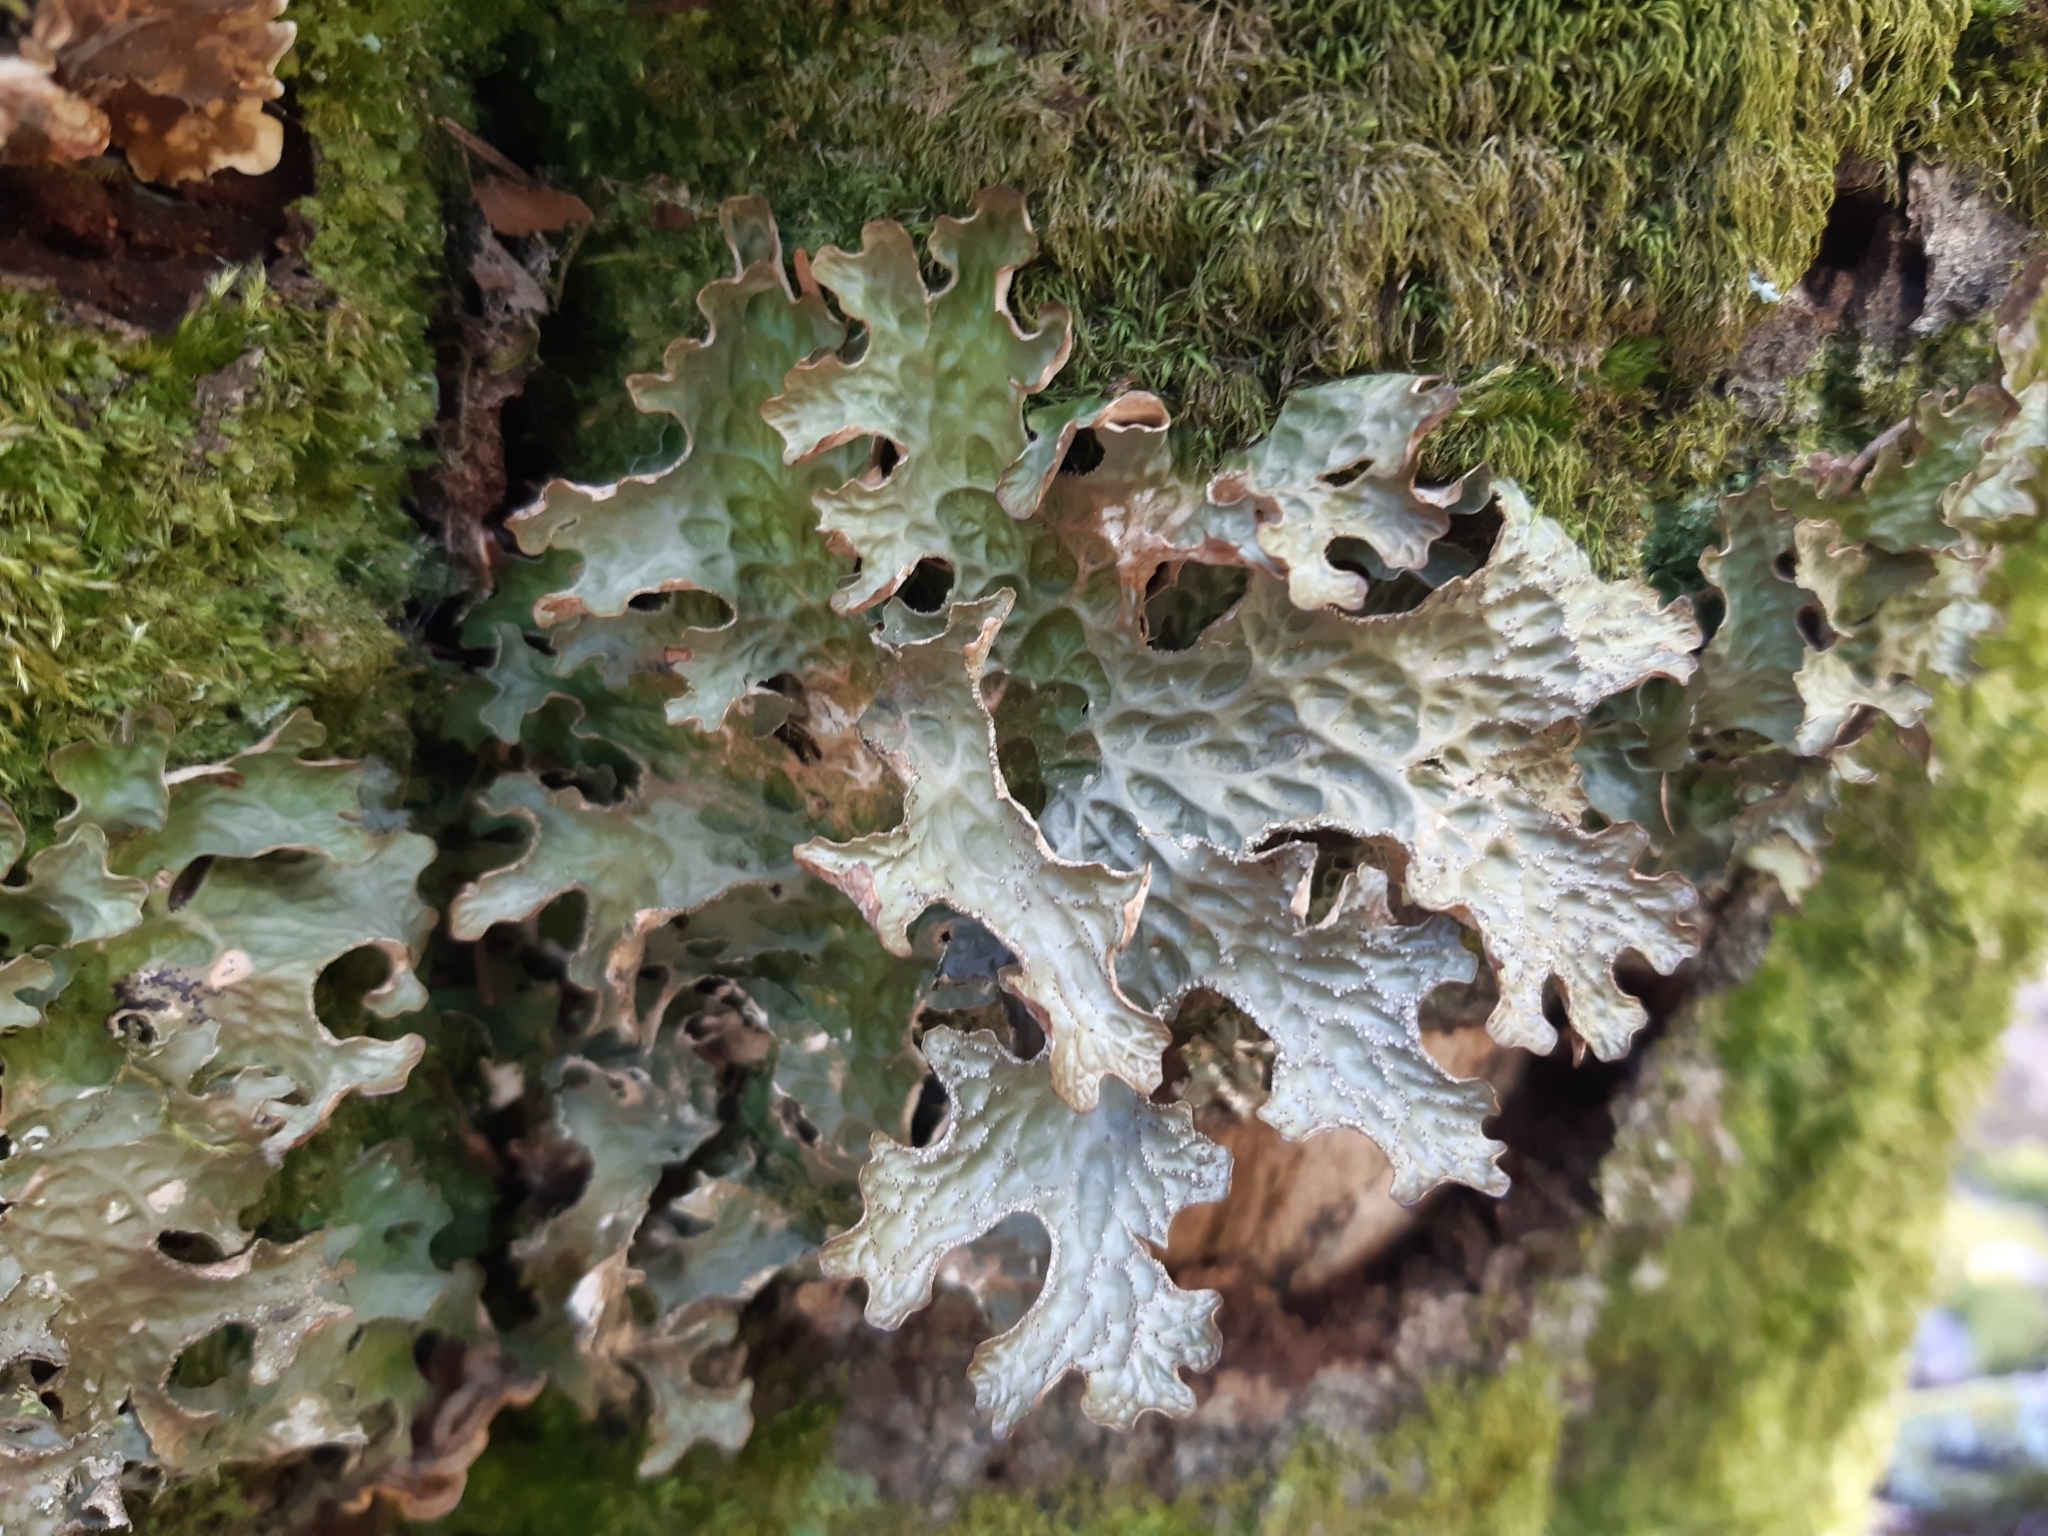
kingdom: Fungi
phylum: Ascomycota
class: Lecanoromycetes
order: Peltigerales
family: Lobariaceae
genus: Lobaria
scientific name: Lobaria pulmonaria
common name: Lungwort
